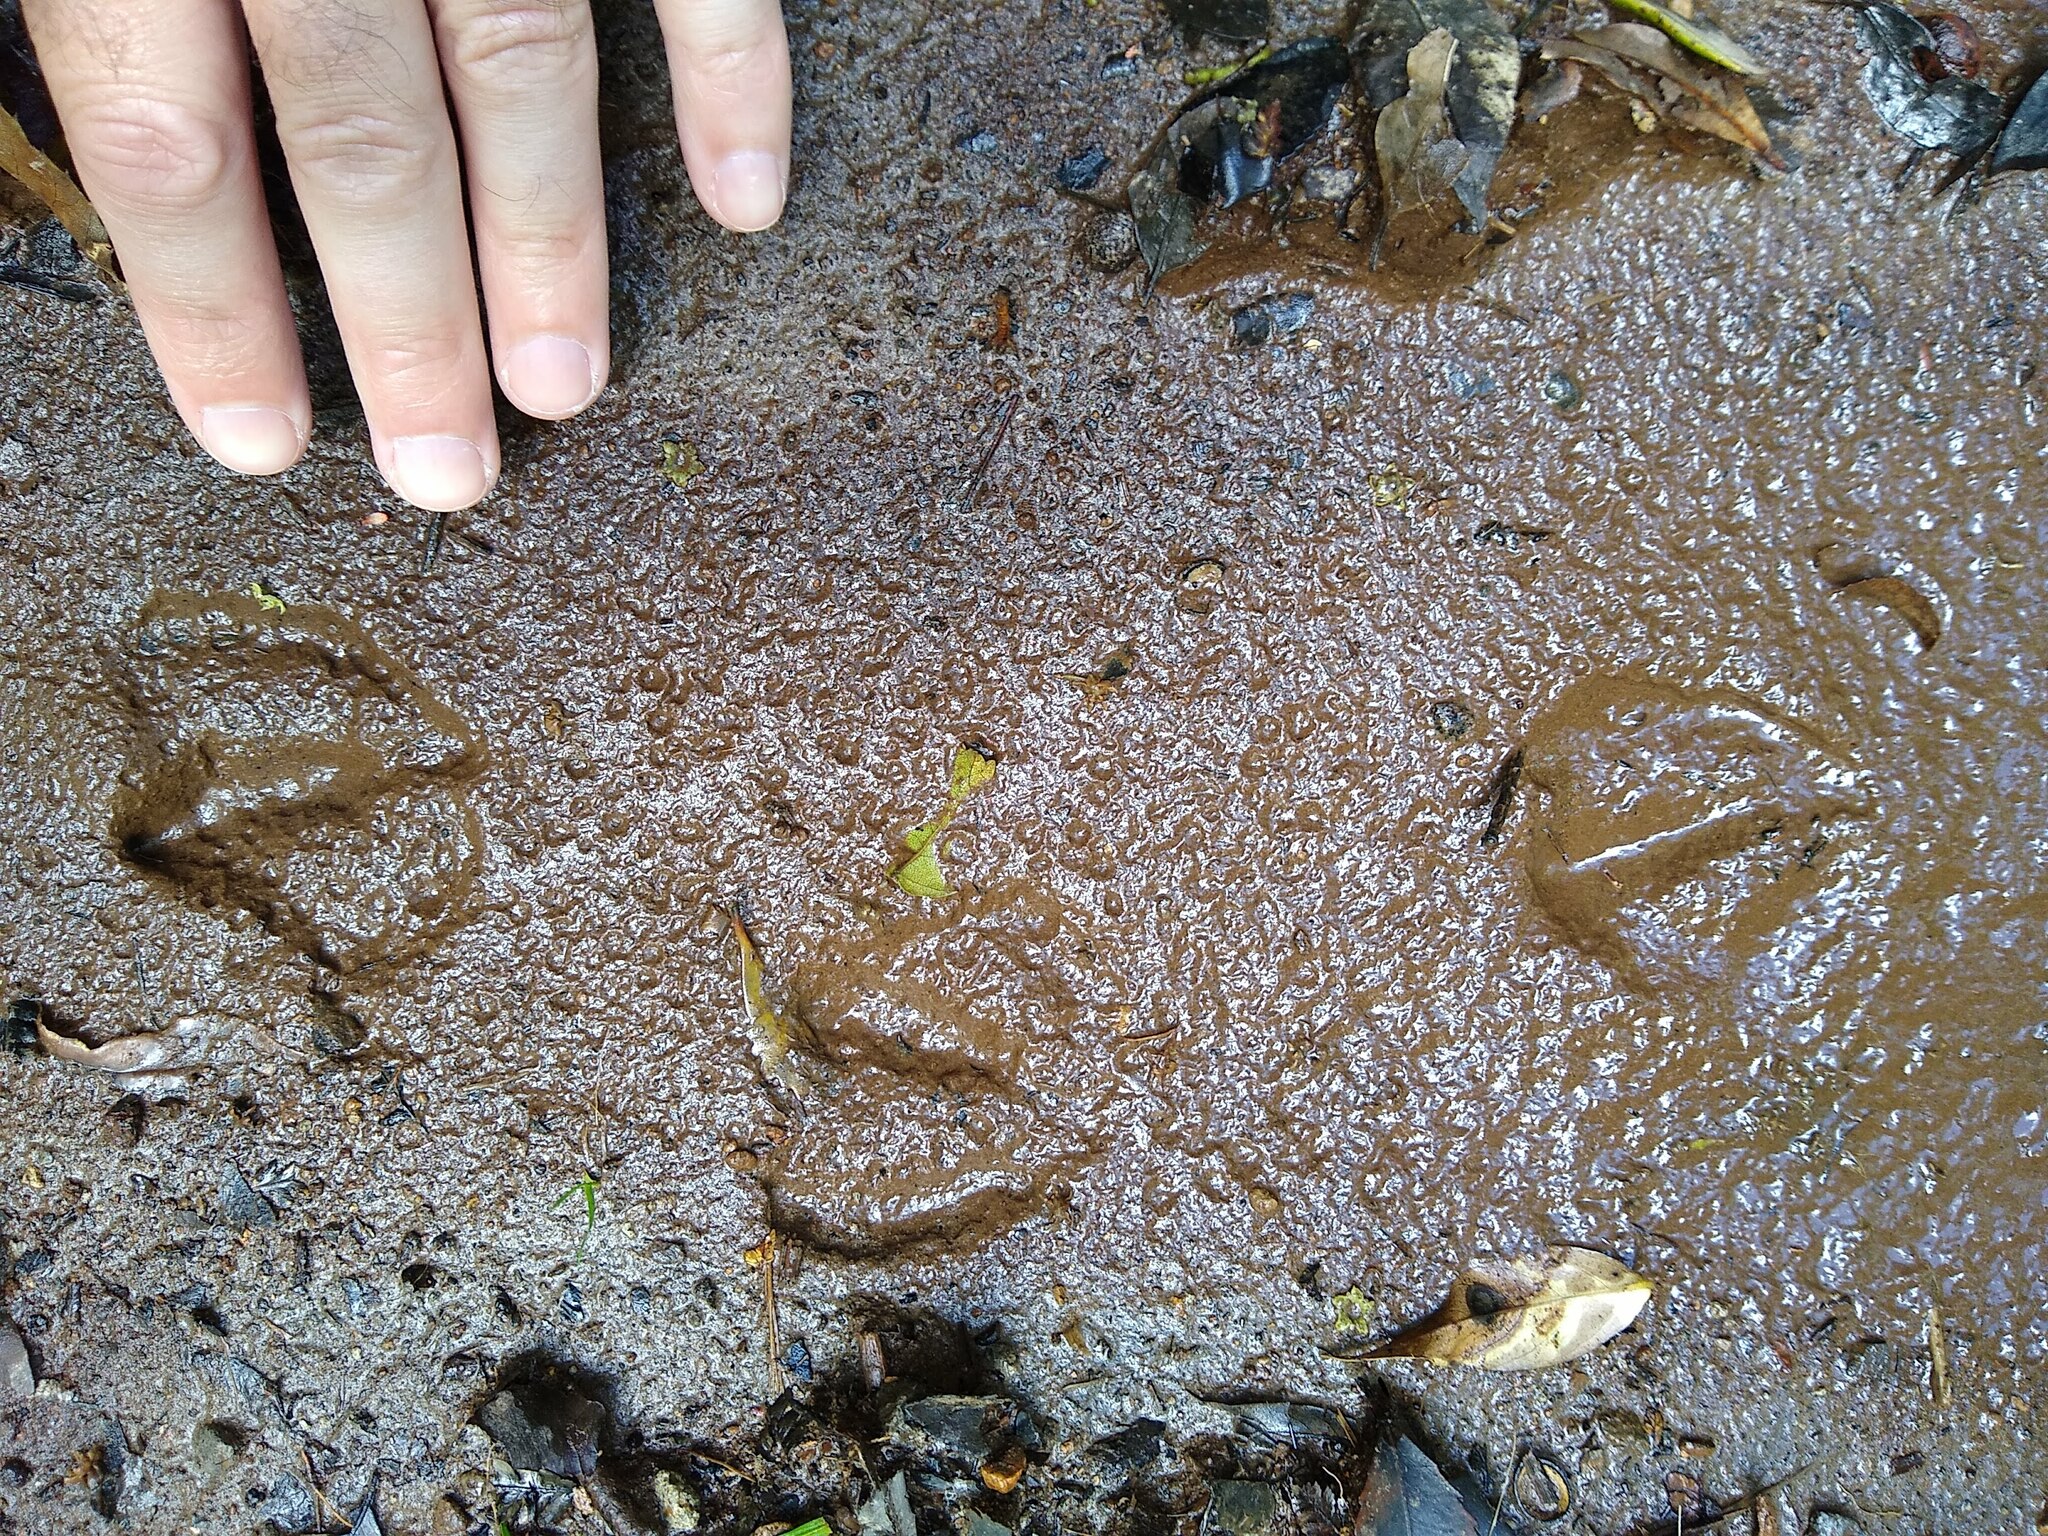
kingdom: Animalia
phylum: Chordata
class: Aves
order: Anseriformes
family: Anatidae
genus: Tadorna
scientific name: Tadorna variegata
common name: Paradise shelduck
